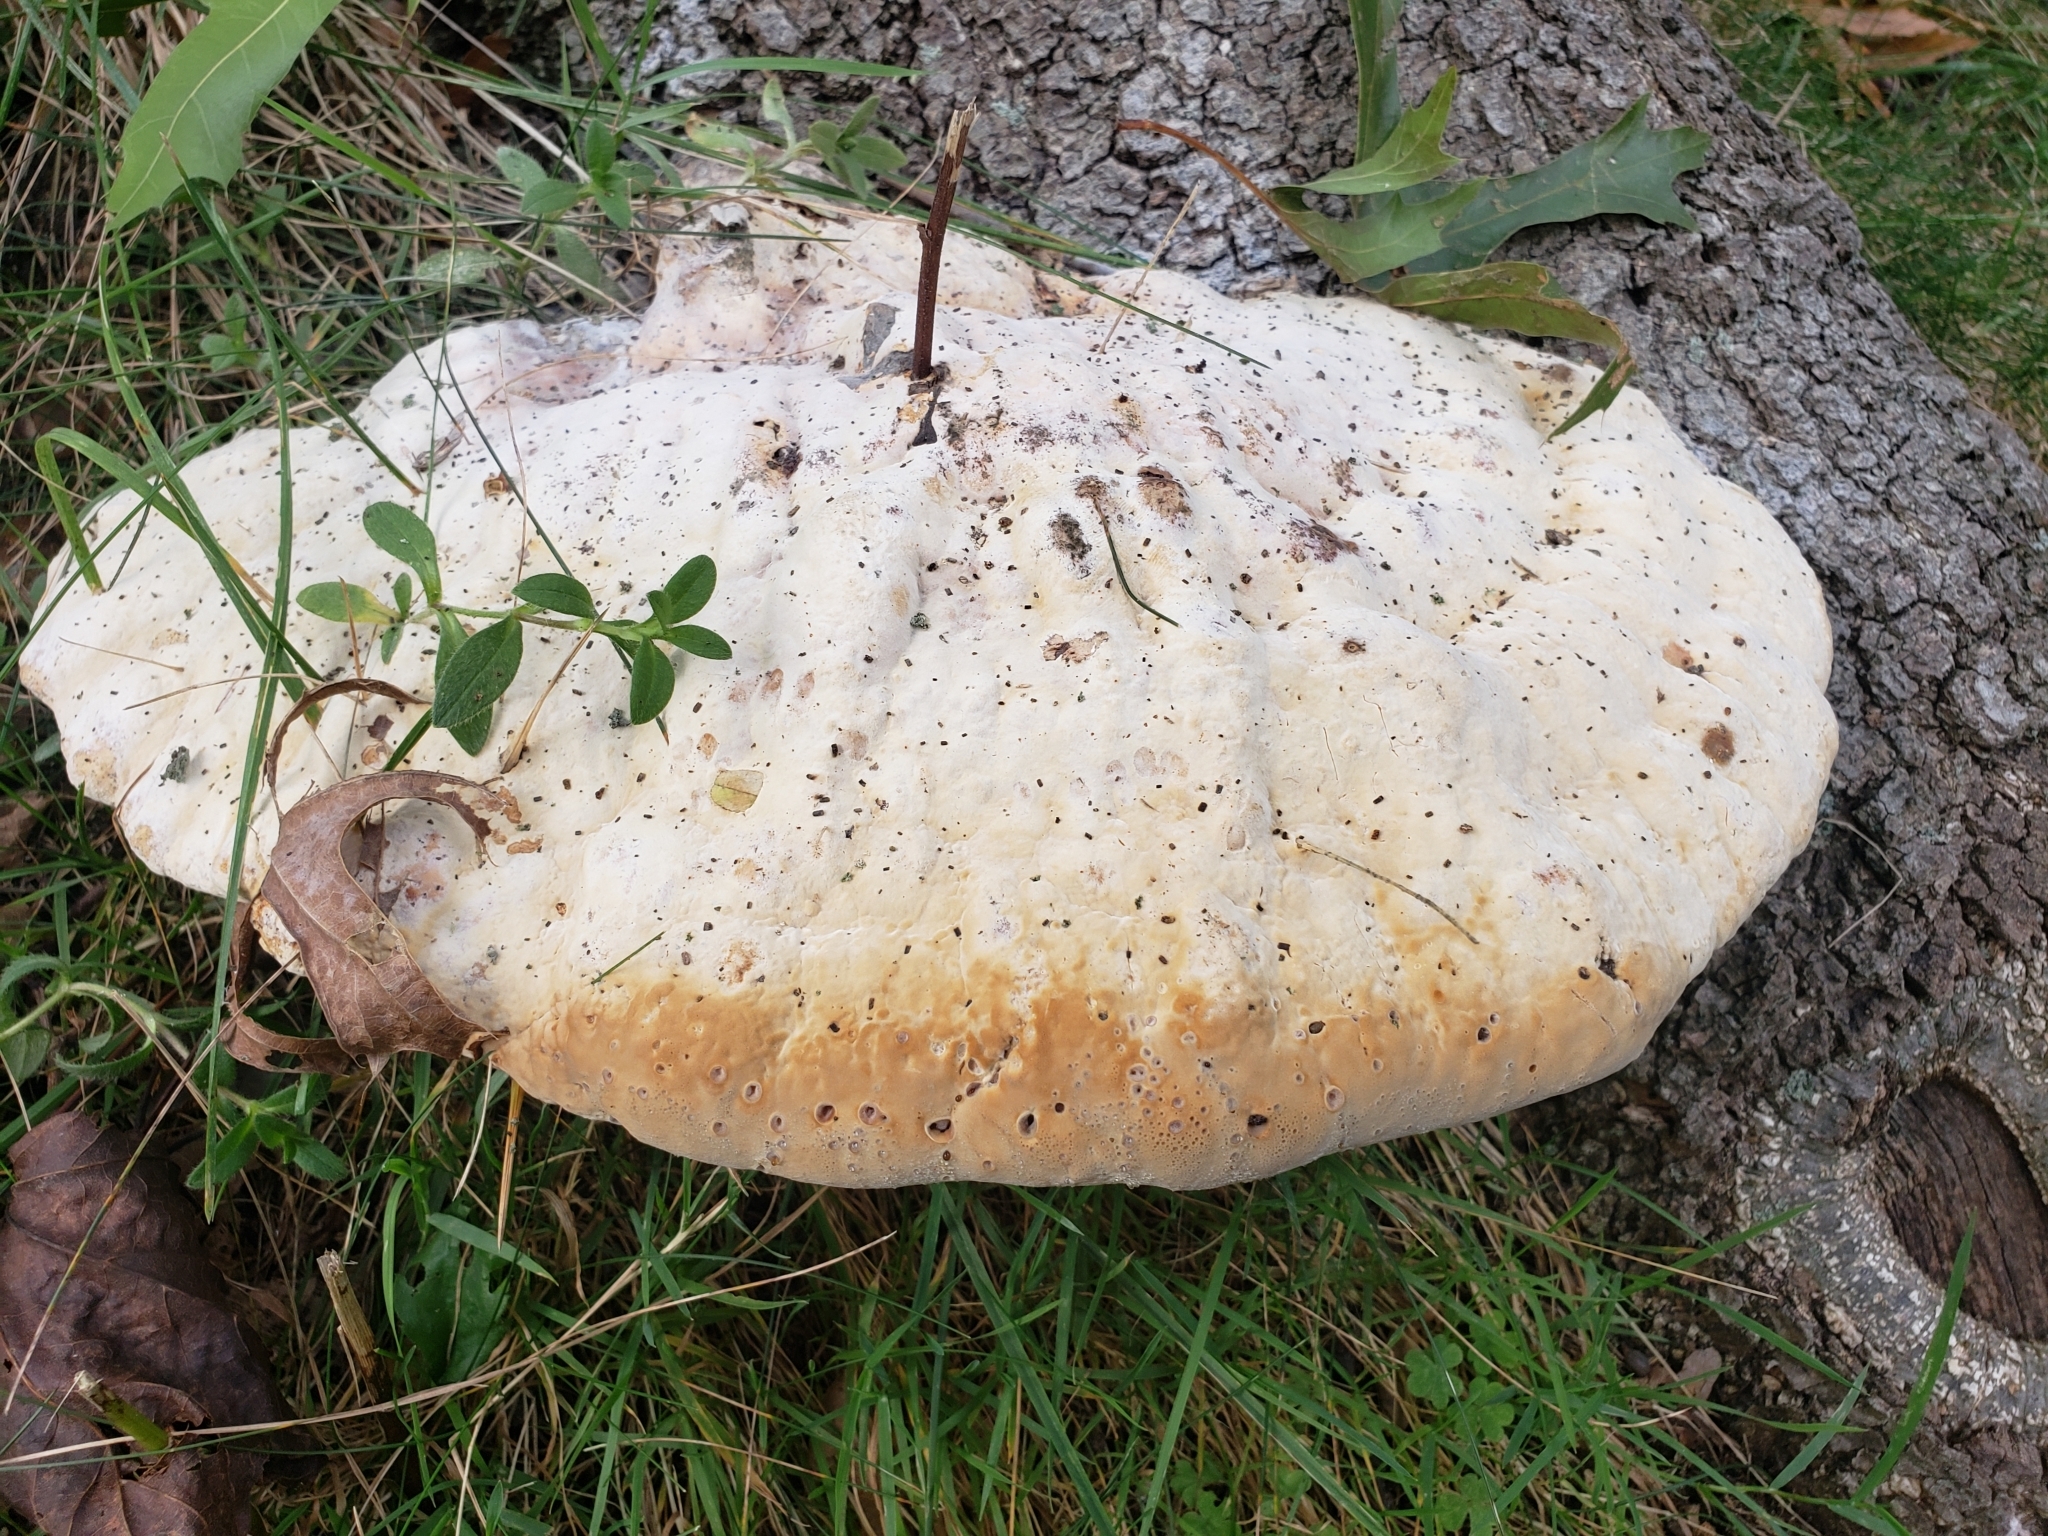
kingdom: Fungi
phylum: Basidiomycota
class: Agaricomycetes
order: Hymenochaetales
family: Hymenochaetaceae
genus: Pseudoinonotus
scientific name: Pseudoinonotus dryadeus
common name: Oak bracket
